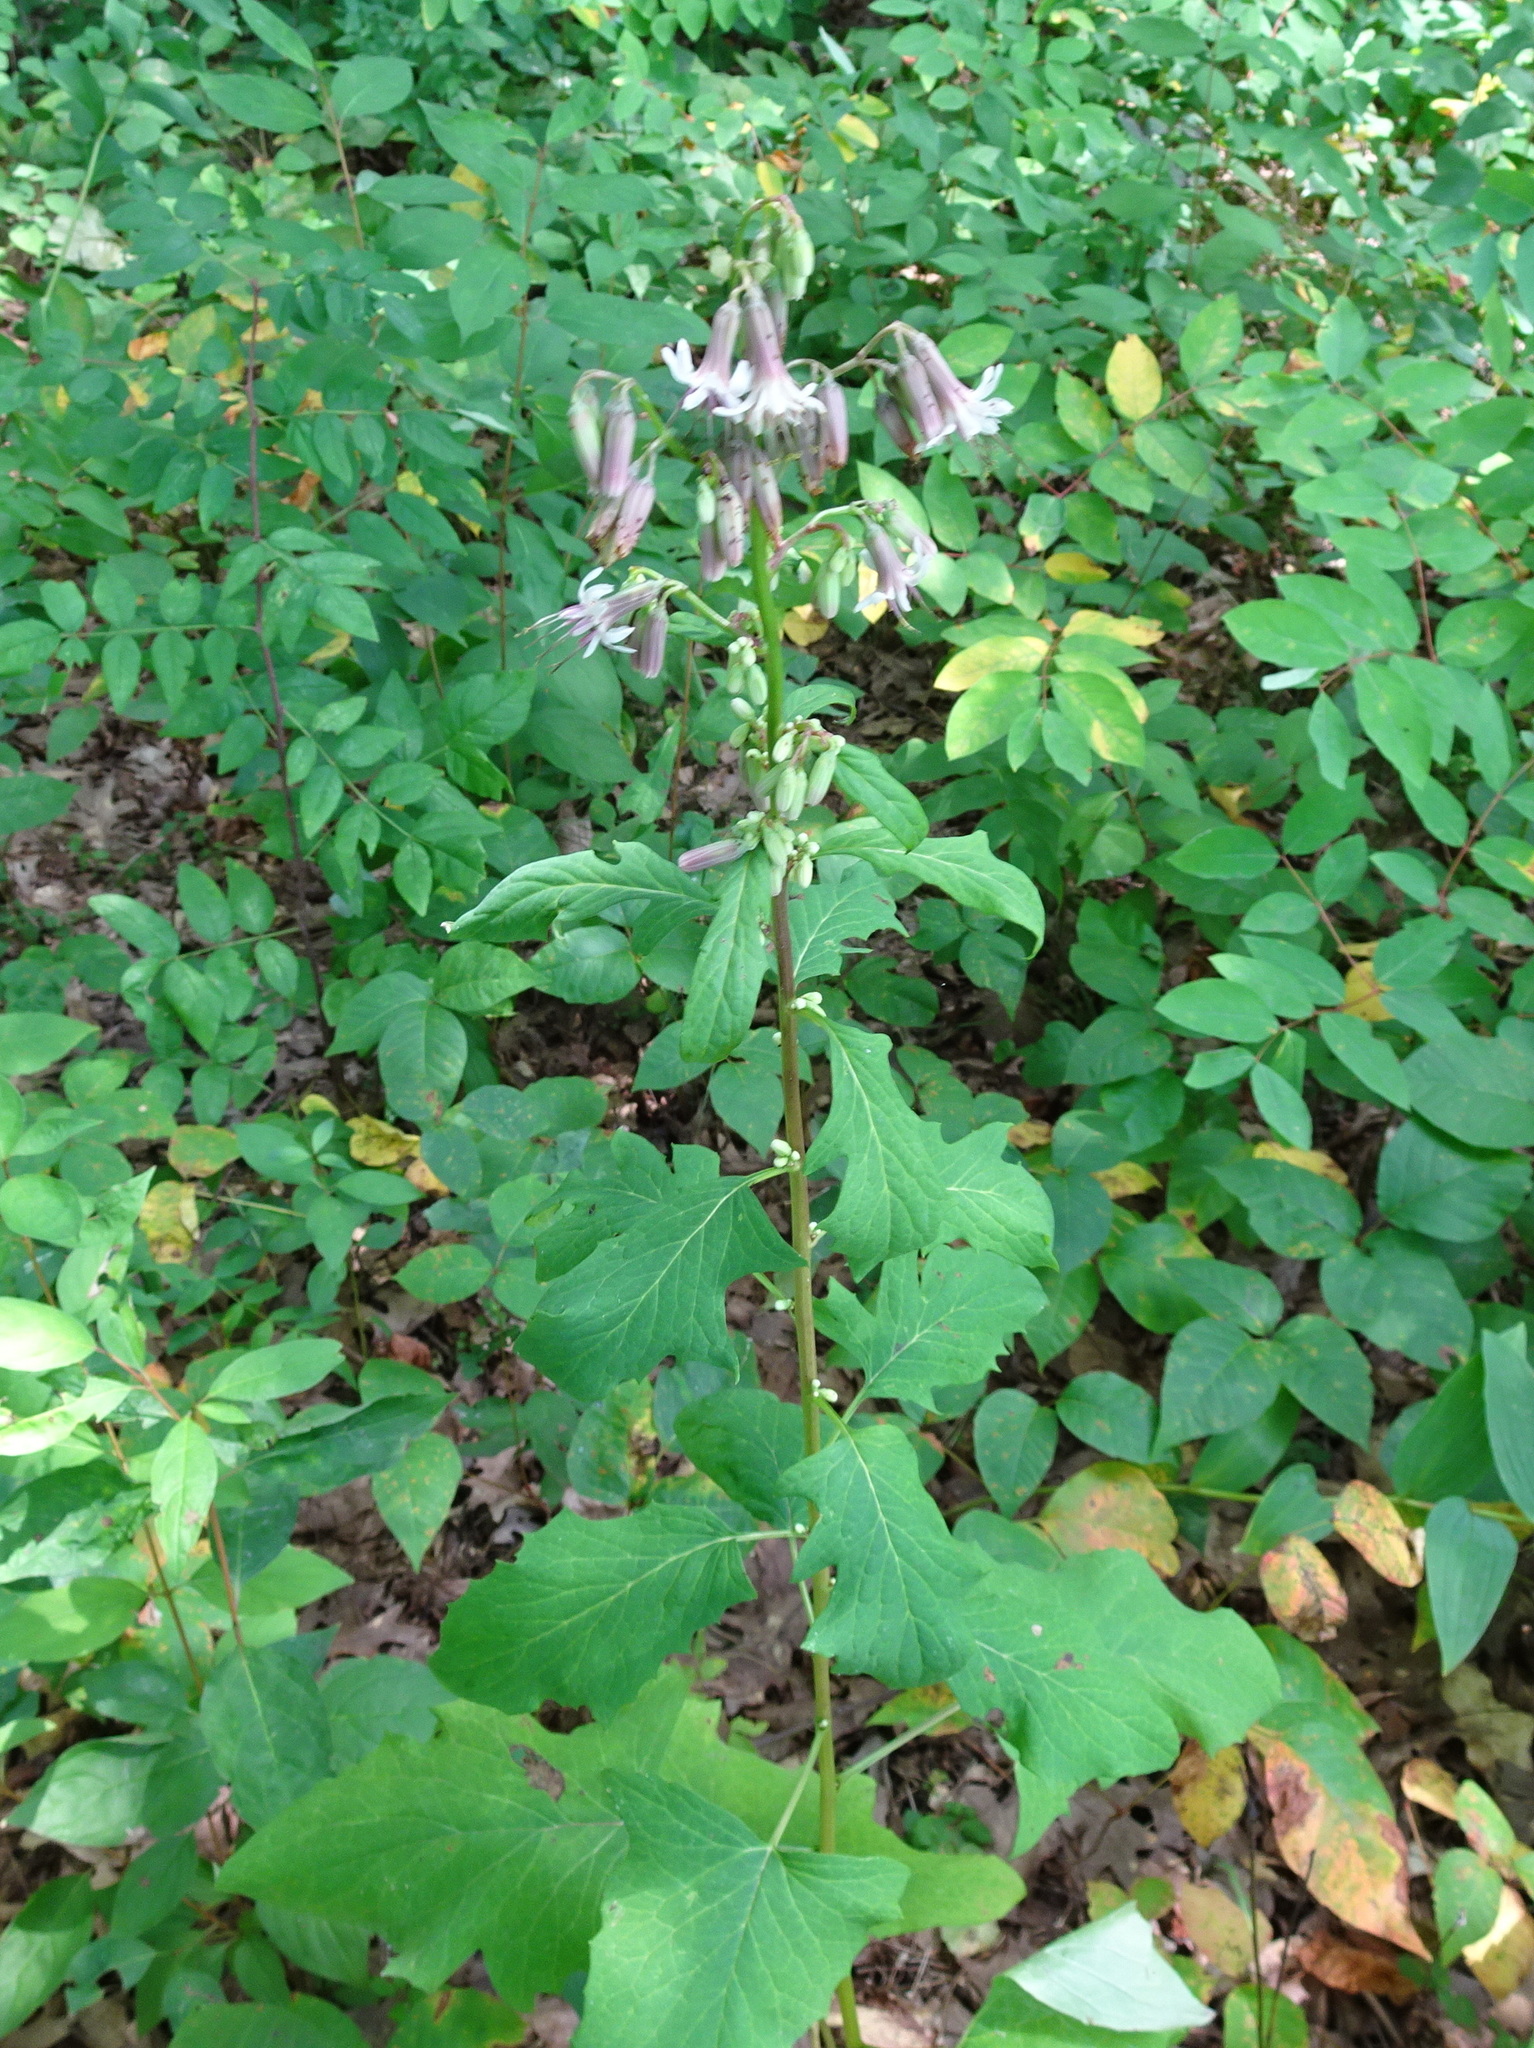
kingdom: Plantae
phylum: Tracheophyta
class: Magnoliopsida
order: Asterales
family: Asteraceae
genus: Nabalus
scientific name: Nabalus albus
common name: White rattlesnakeroot
